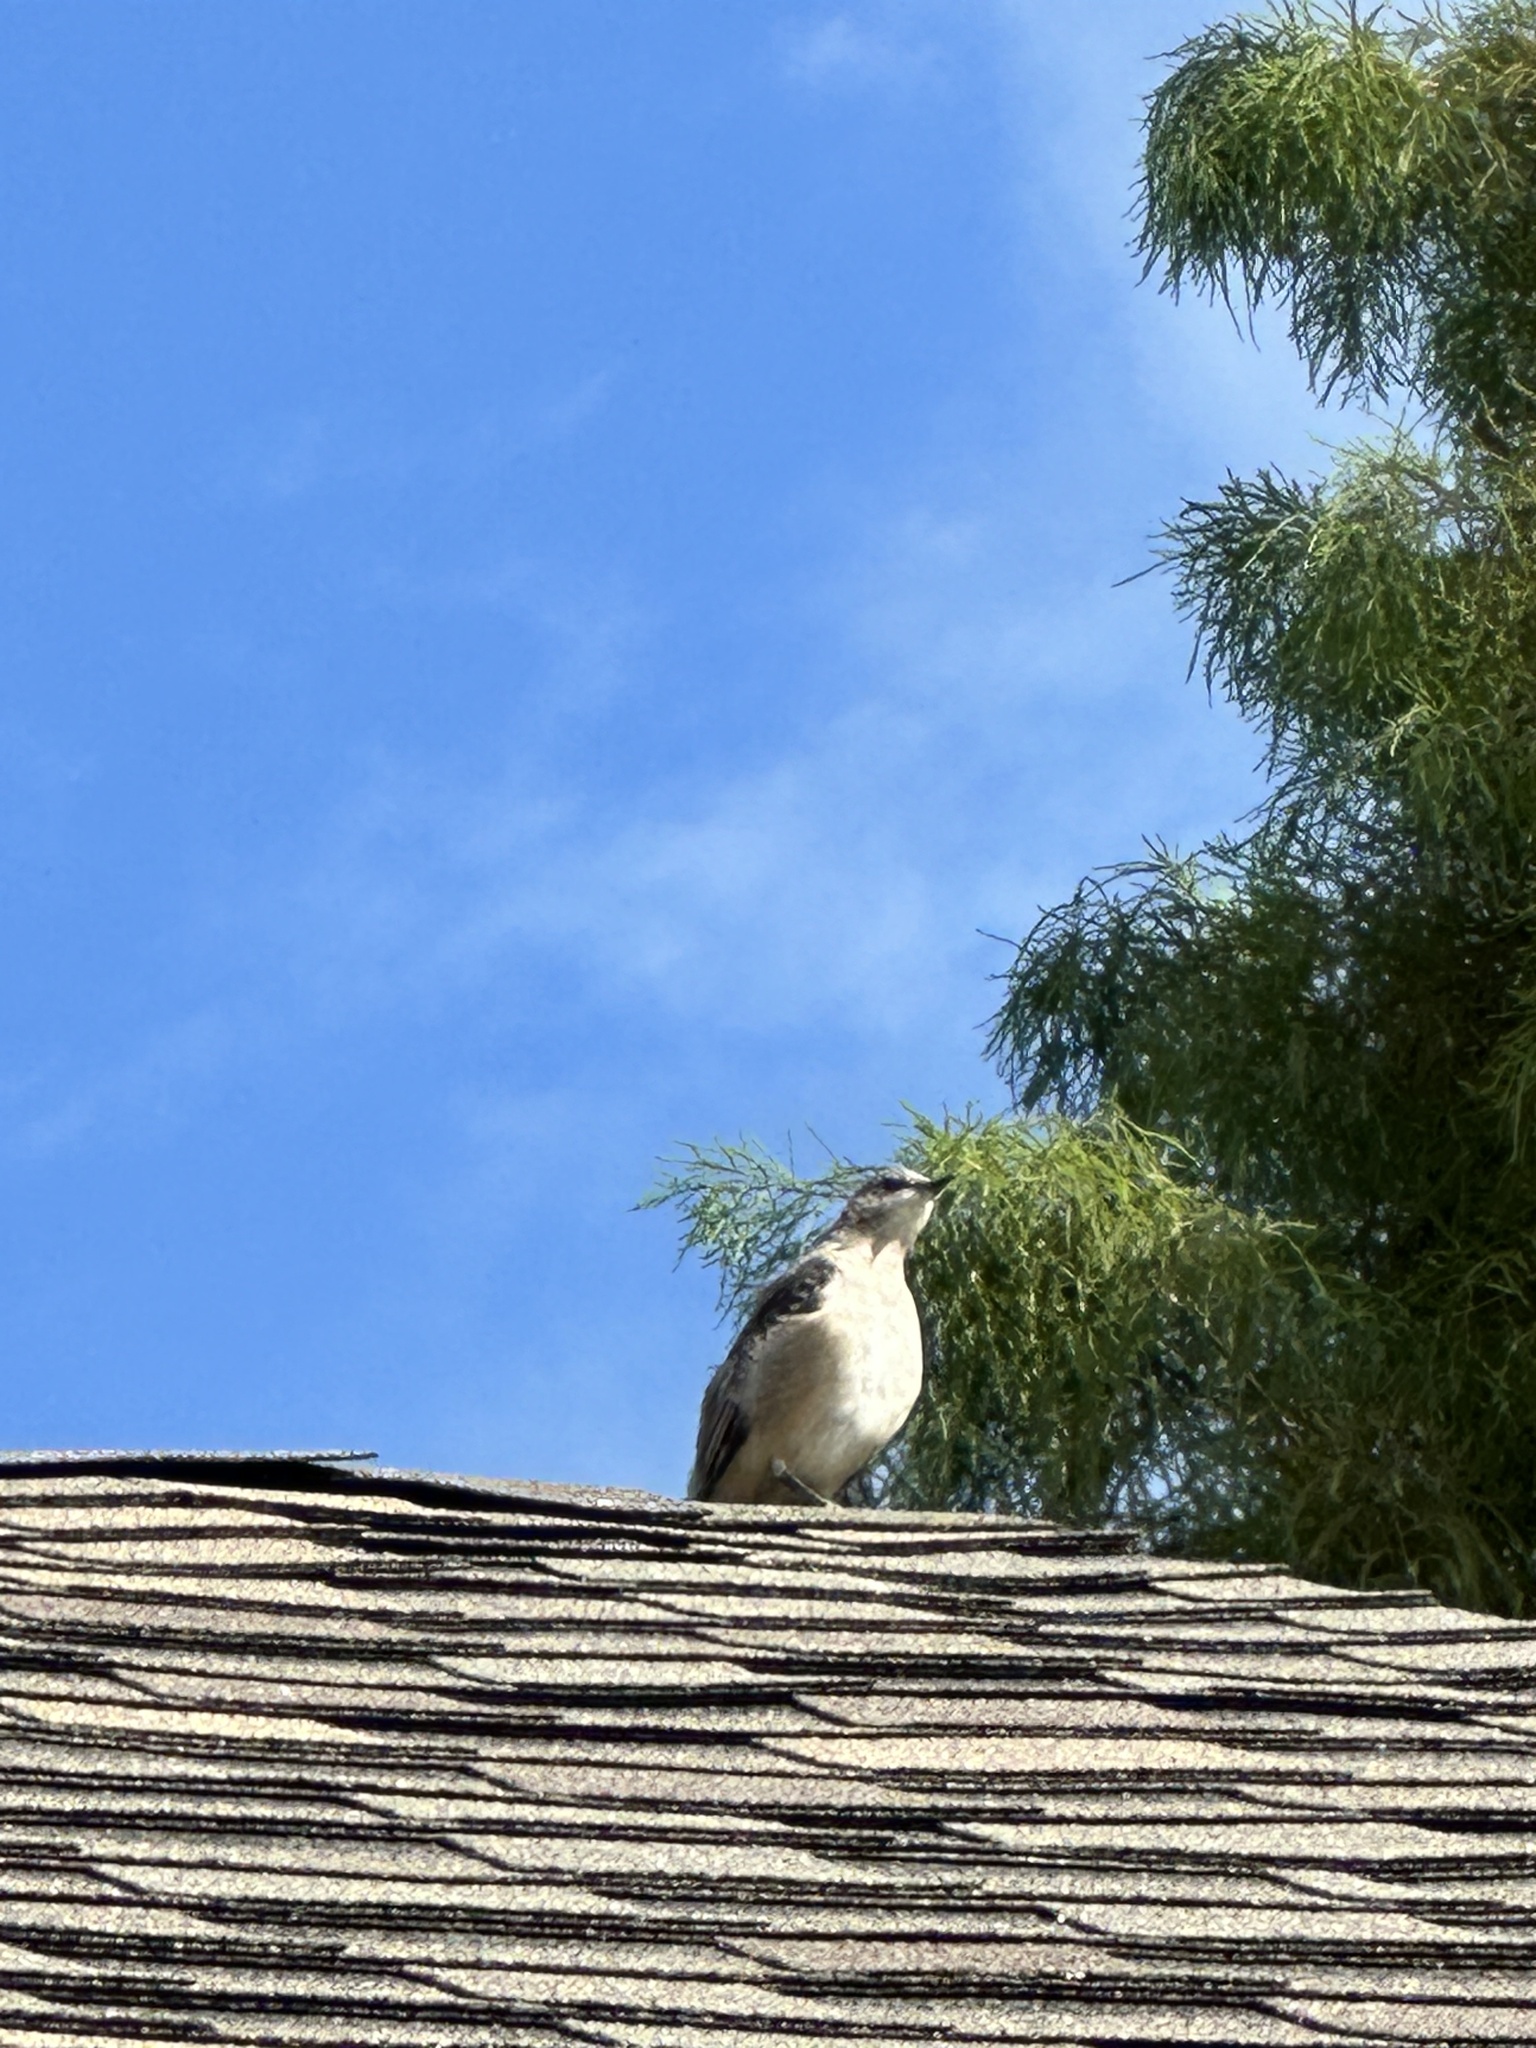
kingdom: Animalia
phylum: Chordata
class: Aves
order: Passeriformes
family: Mimidae
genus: Mimus
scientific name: Mimus polyglottos
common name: Northern mockingbird
